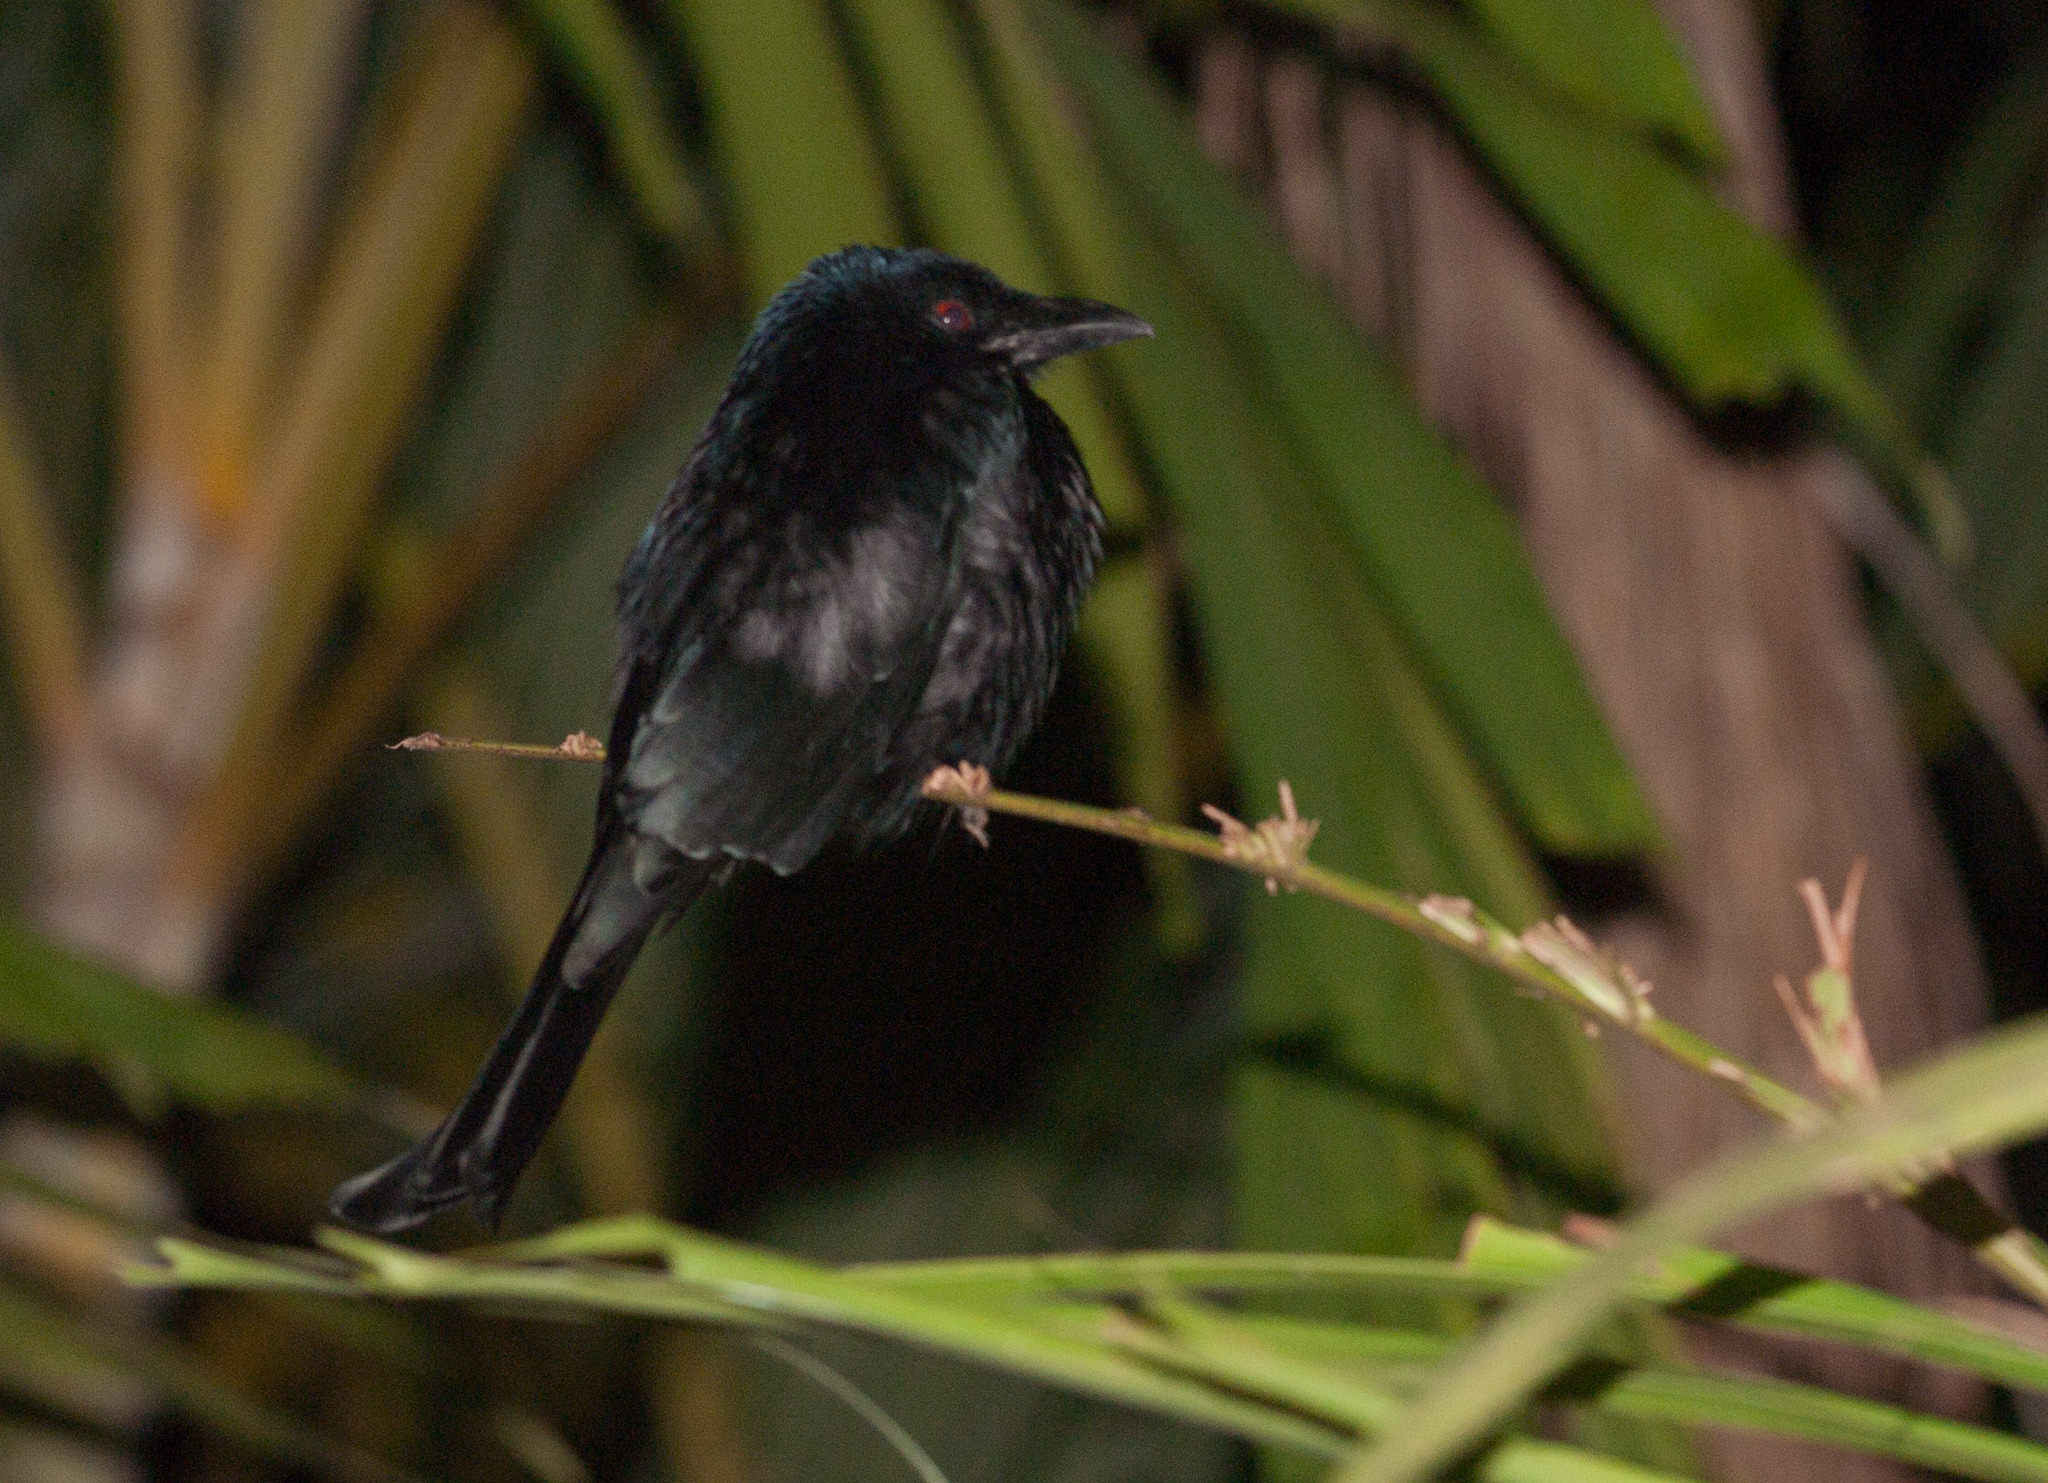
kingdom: Animalia
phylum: Chordata
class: Aves
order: Passeriformes
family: Dicruridae
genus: Dicrurus
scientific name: Dicrurus bracteatus
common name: Spangled drongo
